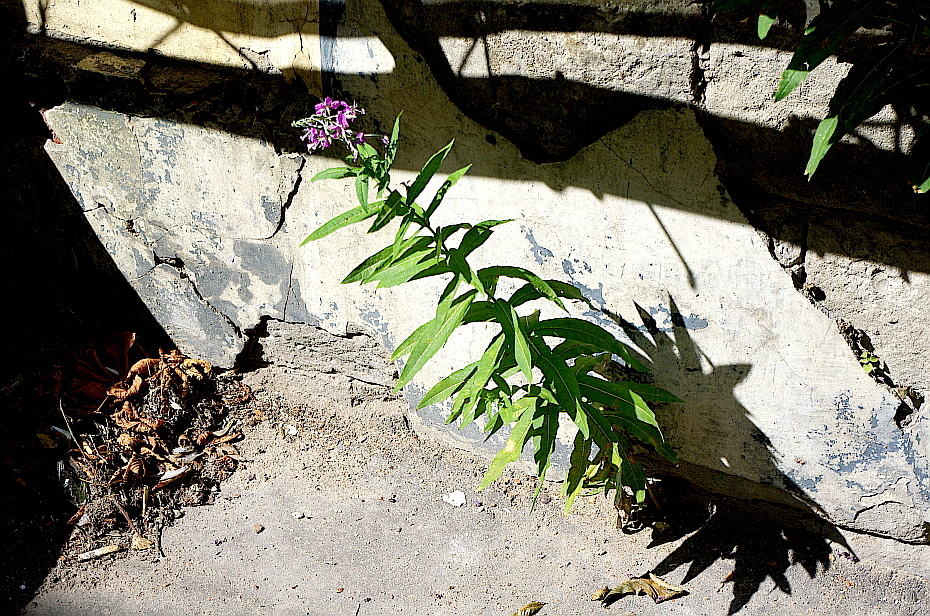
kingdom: Plantae
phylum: Tracheophyta
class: Magnoliopsida
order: Myrtales
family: Onagraceae
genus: Chamaenerion
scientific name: Chamaenerion angustifolium
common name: Fireweed
